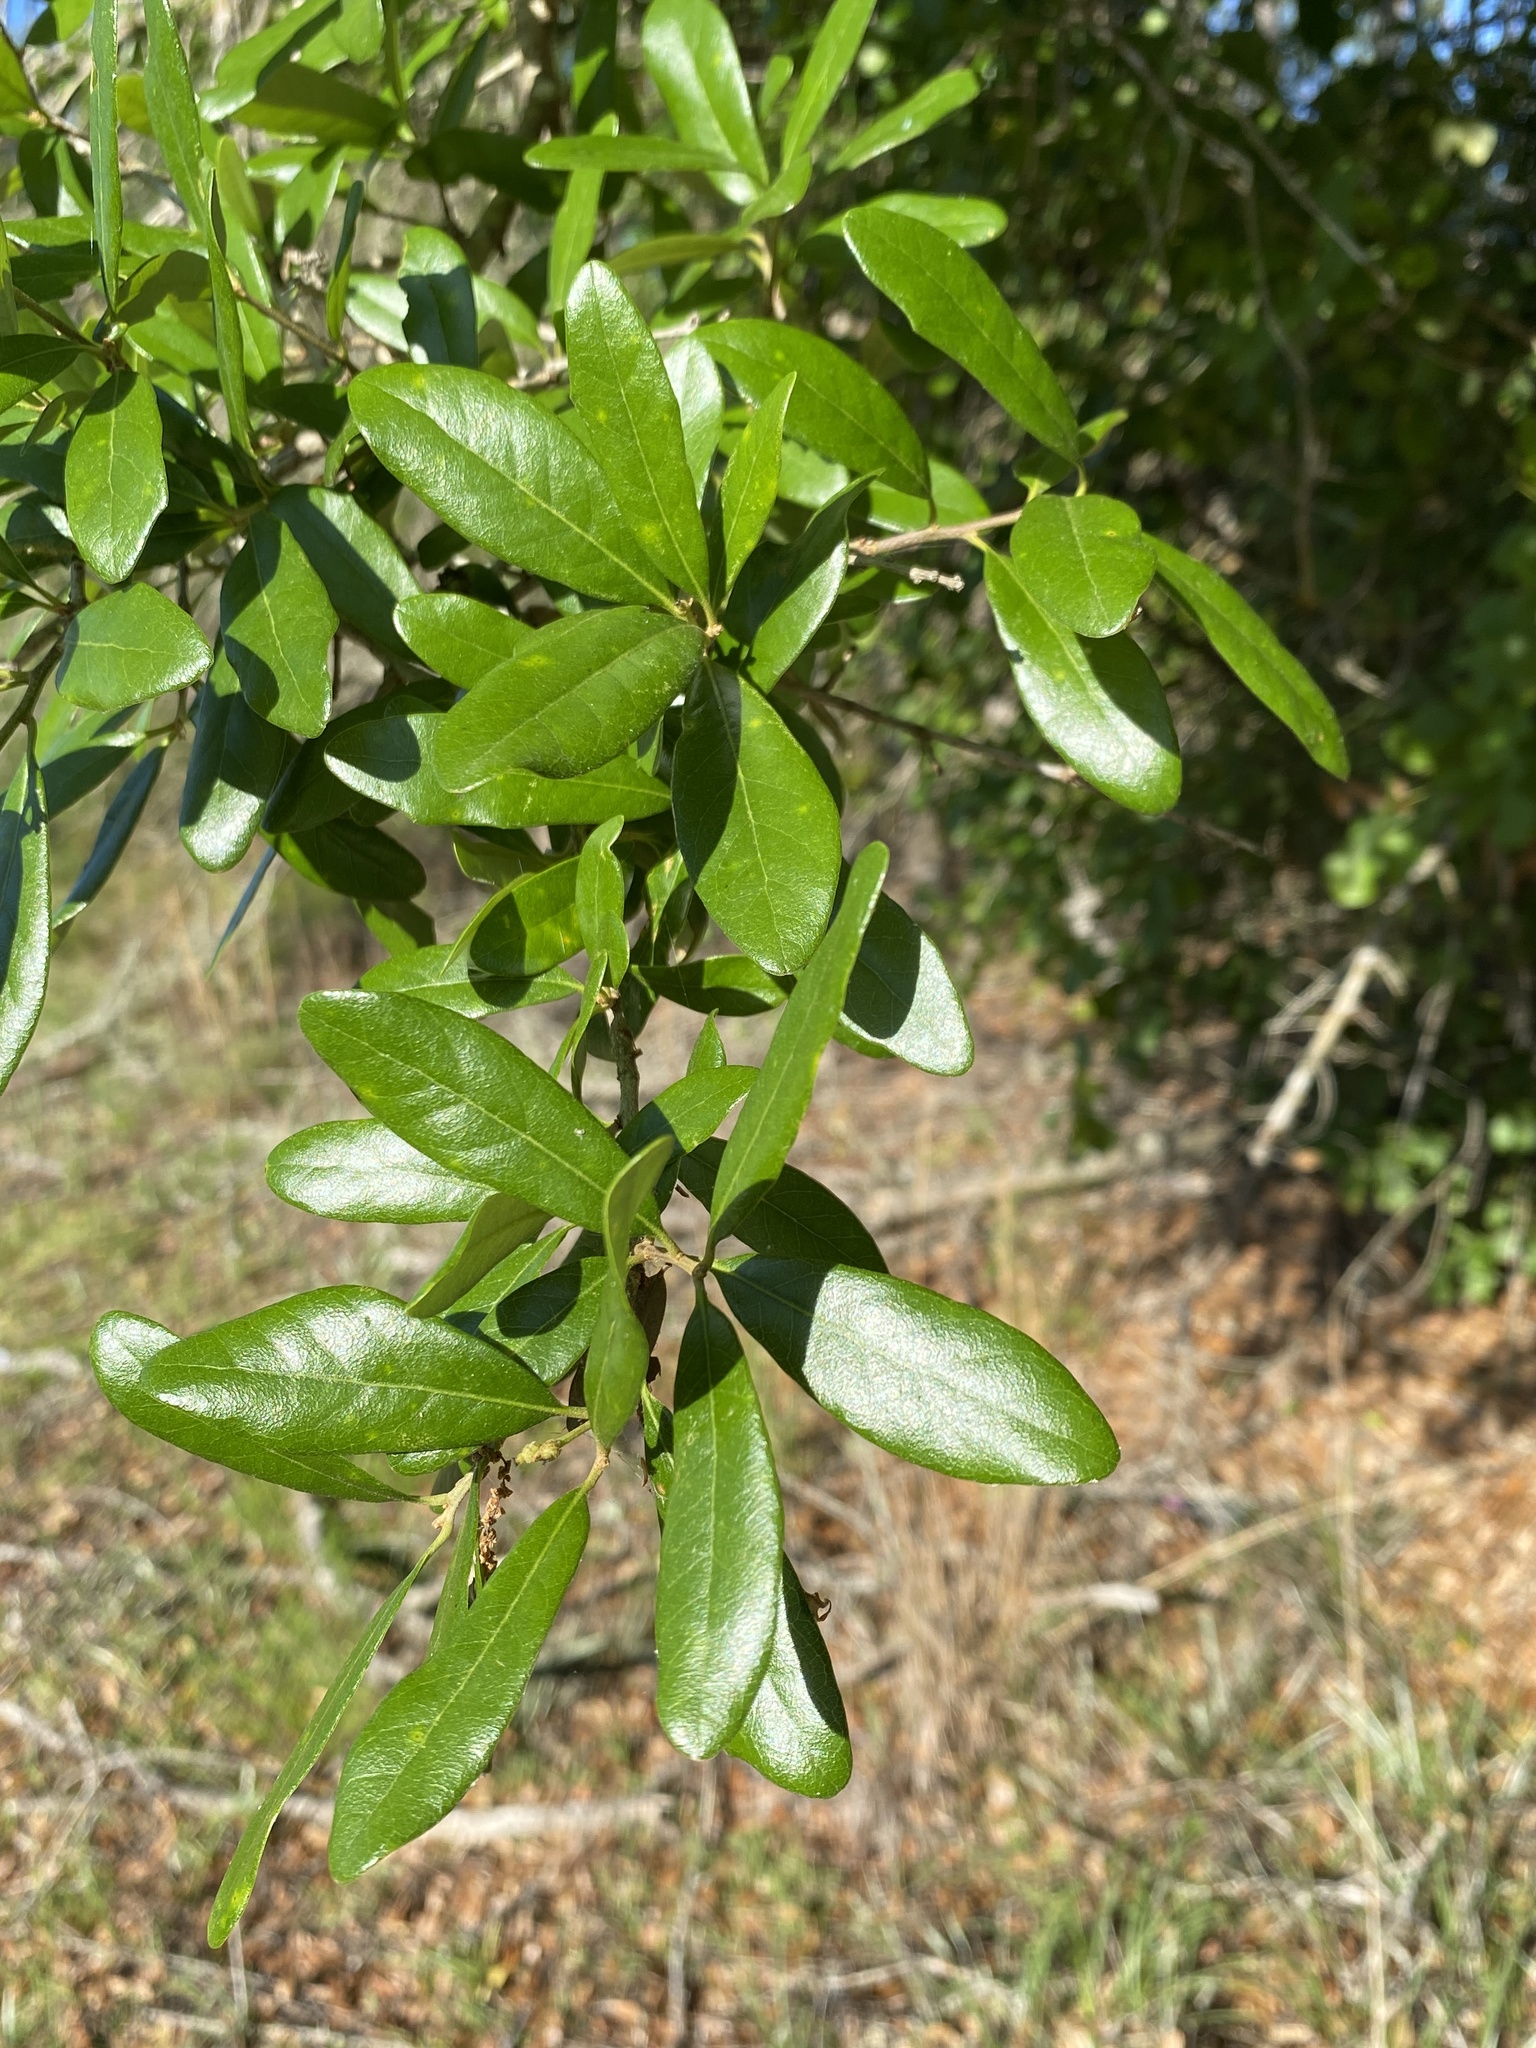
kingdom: Plantae
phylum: Tracheophyta
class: Magnoliopsida
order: Fagales
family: Fagaceae
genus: Quercus
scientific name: Quercus virginiana
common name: Southern live oak
